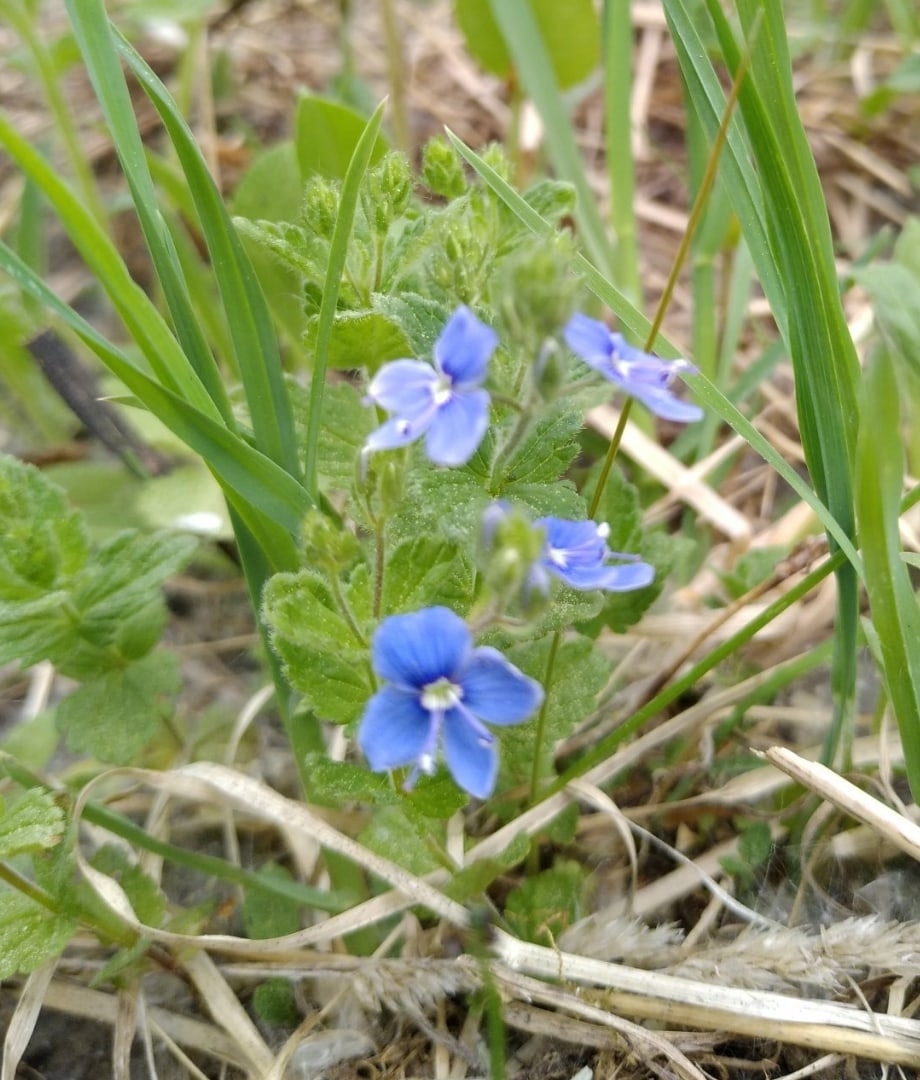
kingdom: Plantae
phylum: Tracheophyta
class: Magnoliopsida
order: Lamiales
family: Plantaginaceae
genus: Veronica
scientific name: Veronica chamaedrys
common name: Germander speedwell
